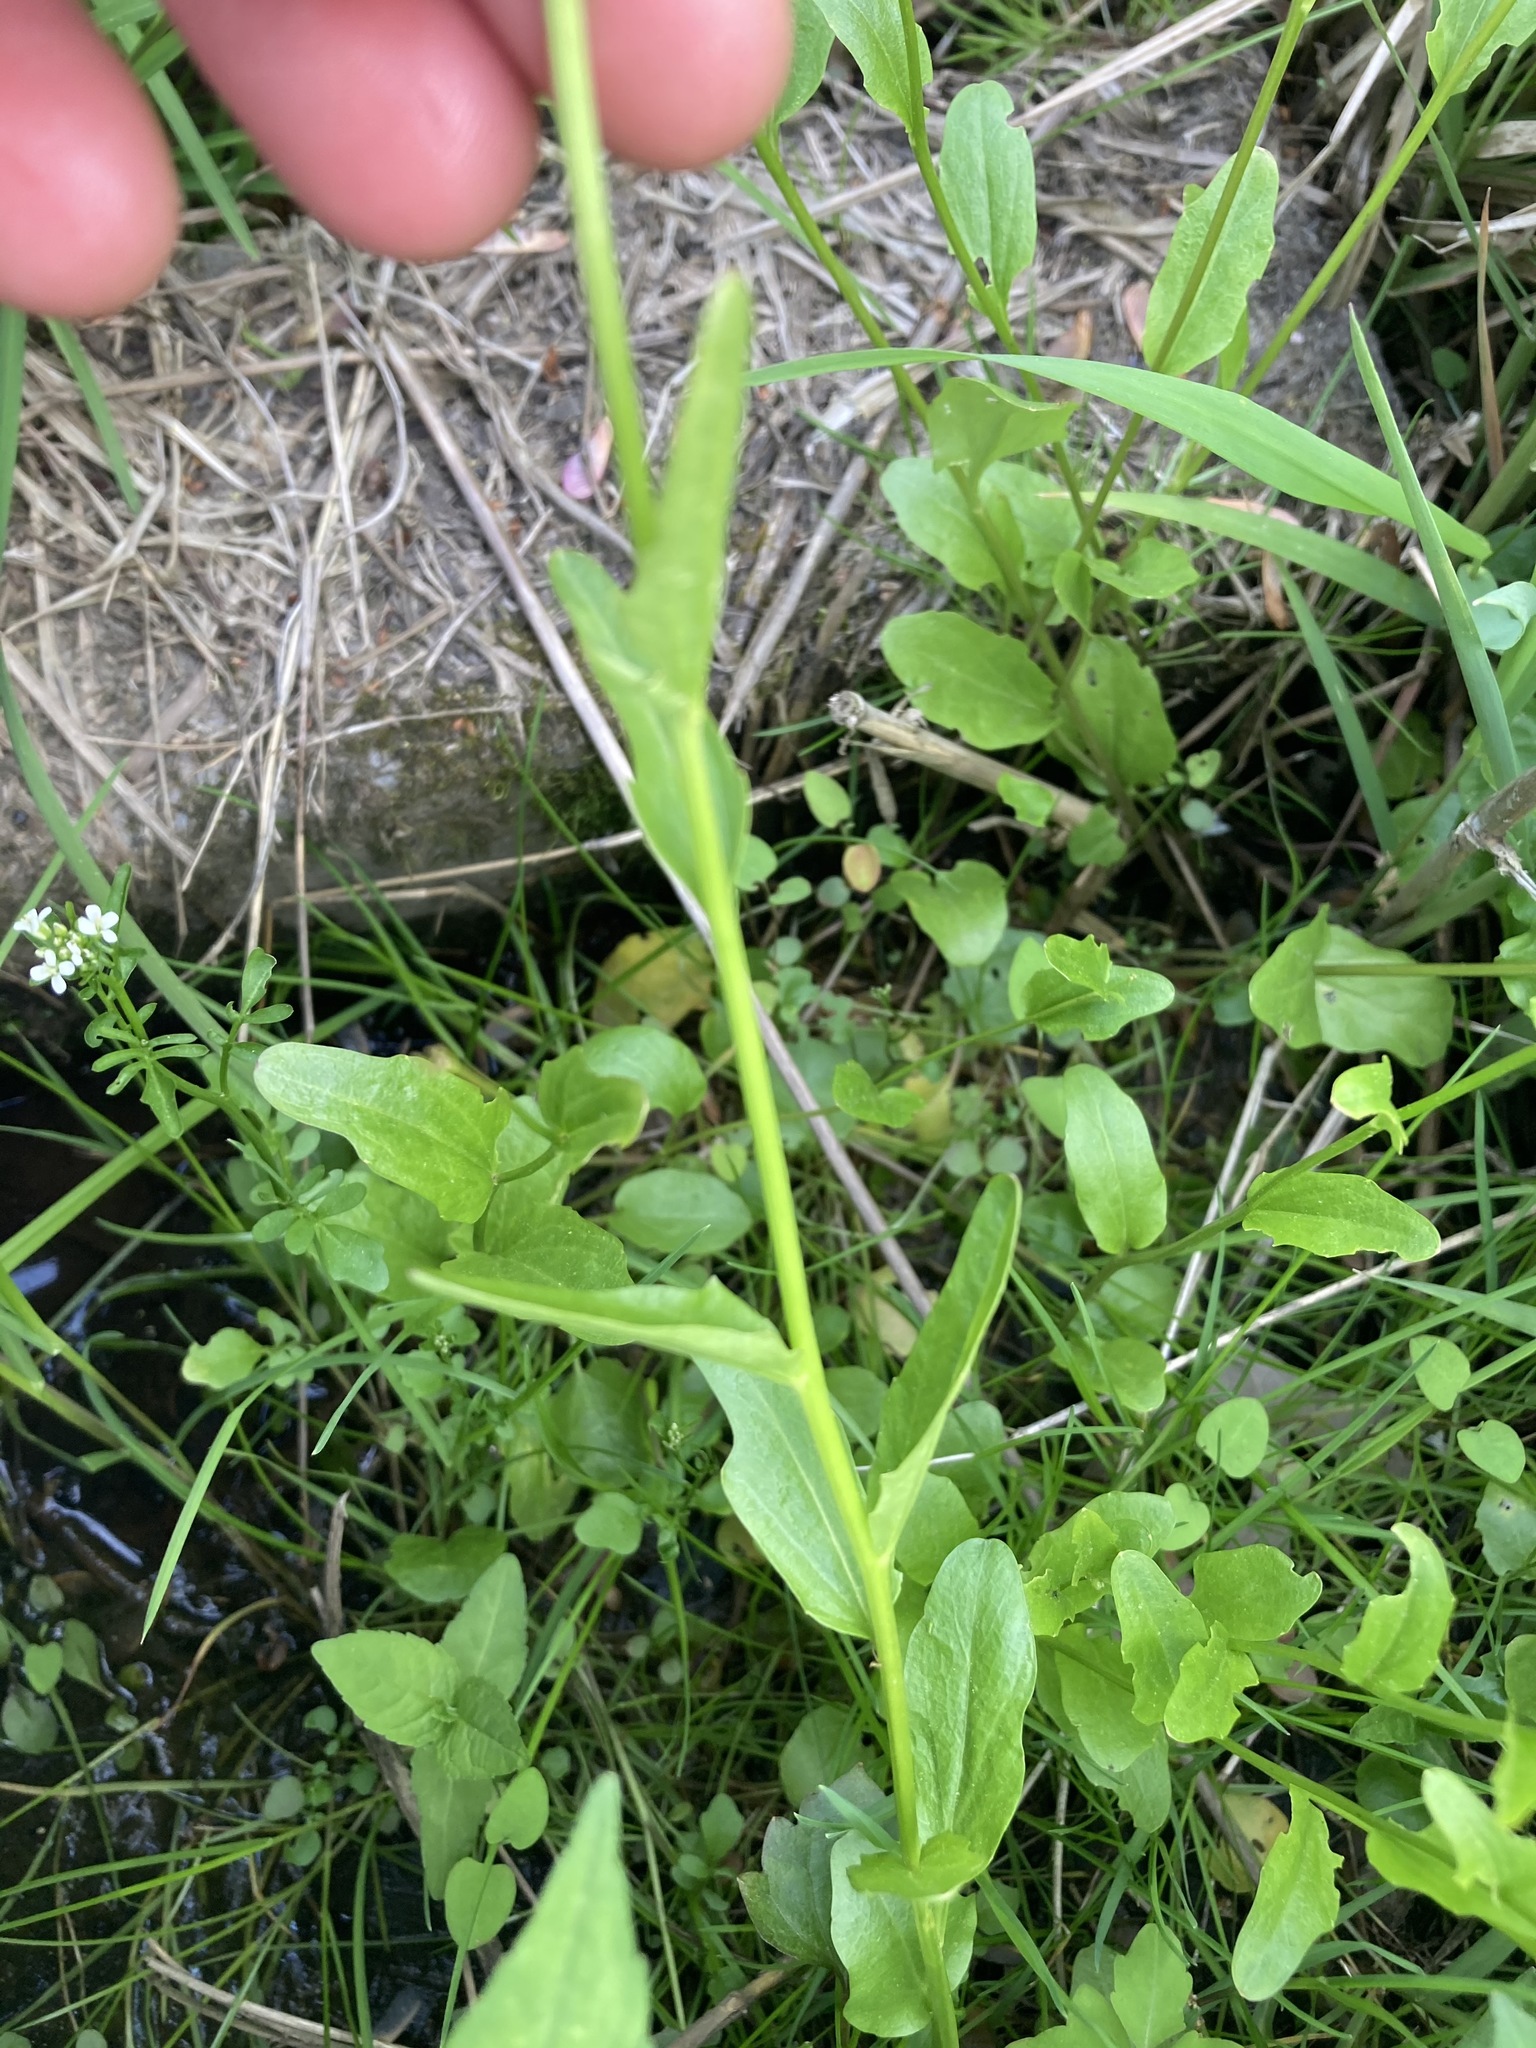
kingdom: Plantae
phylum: Tracheophyta
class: Magnoliopsida
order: Brassicales
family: Brassicaceae
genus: Cardamine
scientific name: Cardamine bulbosa
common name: Spring cress
